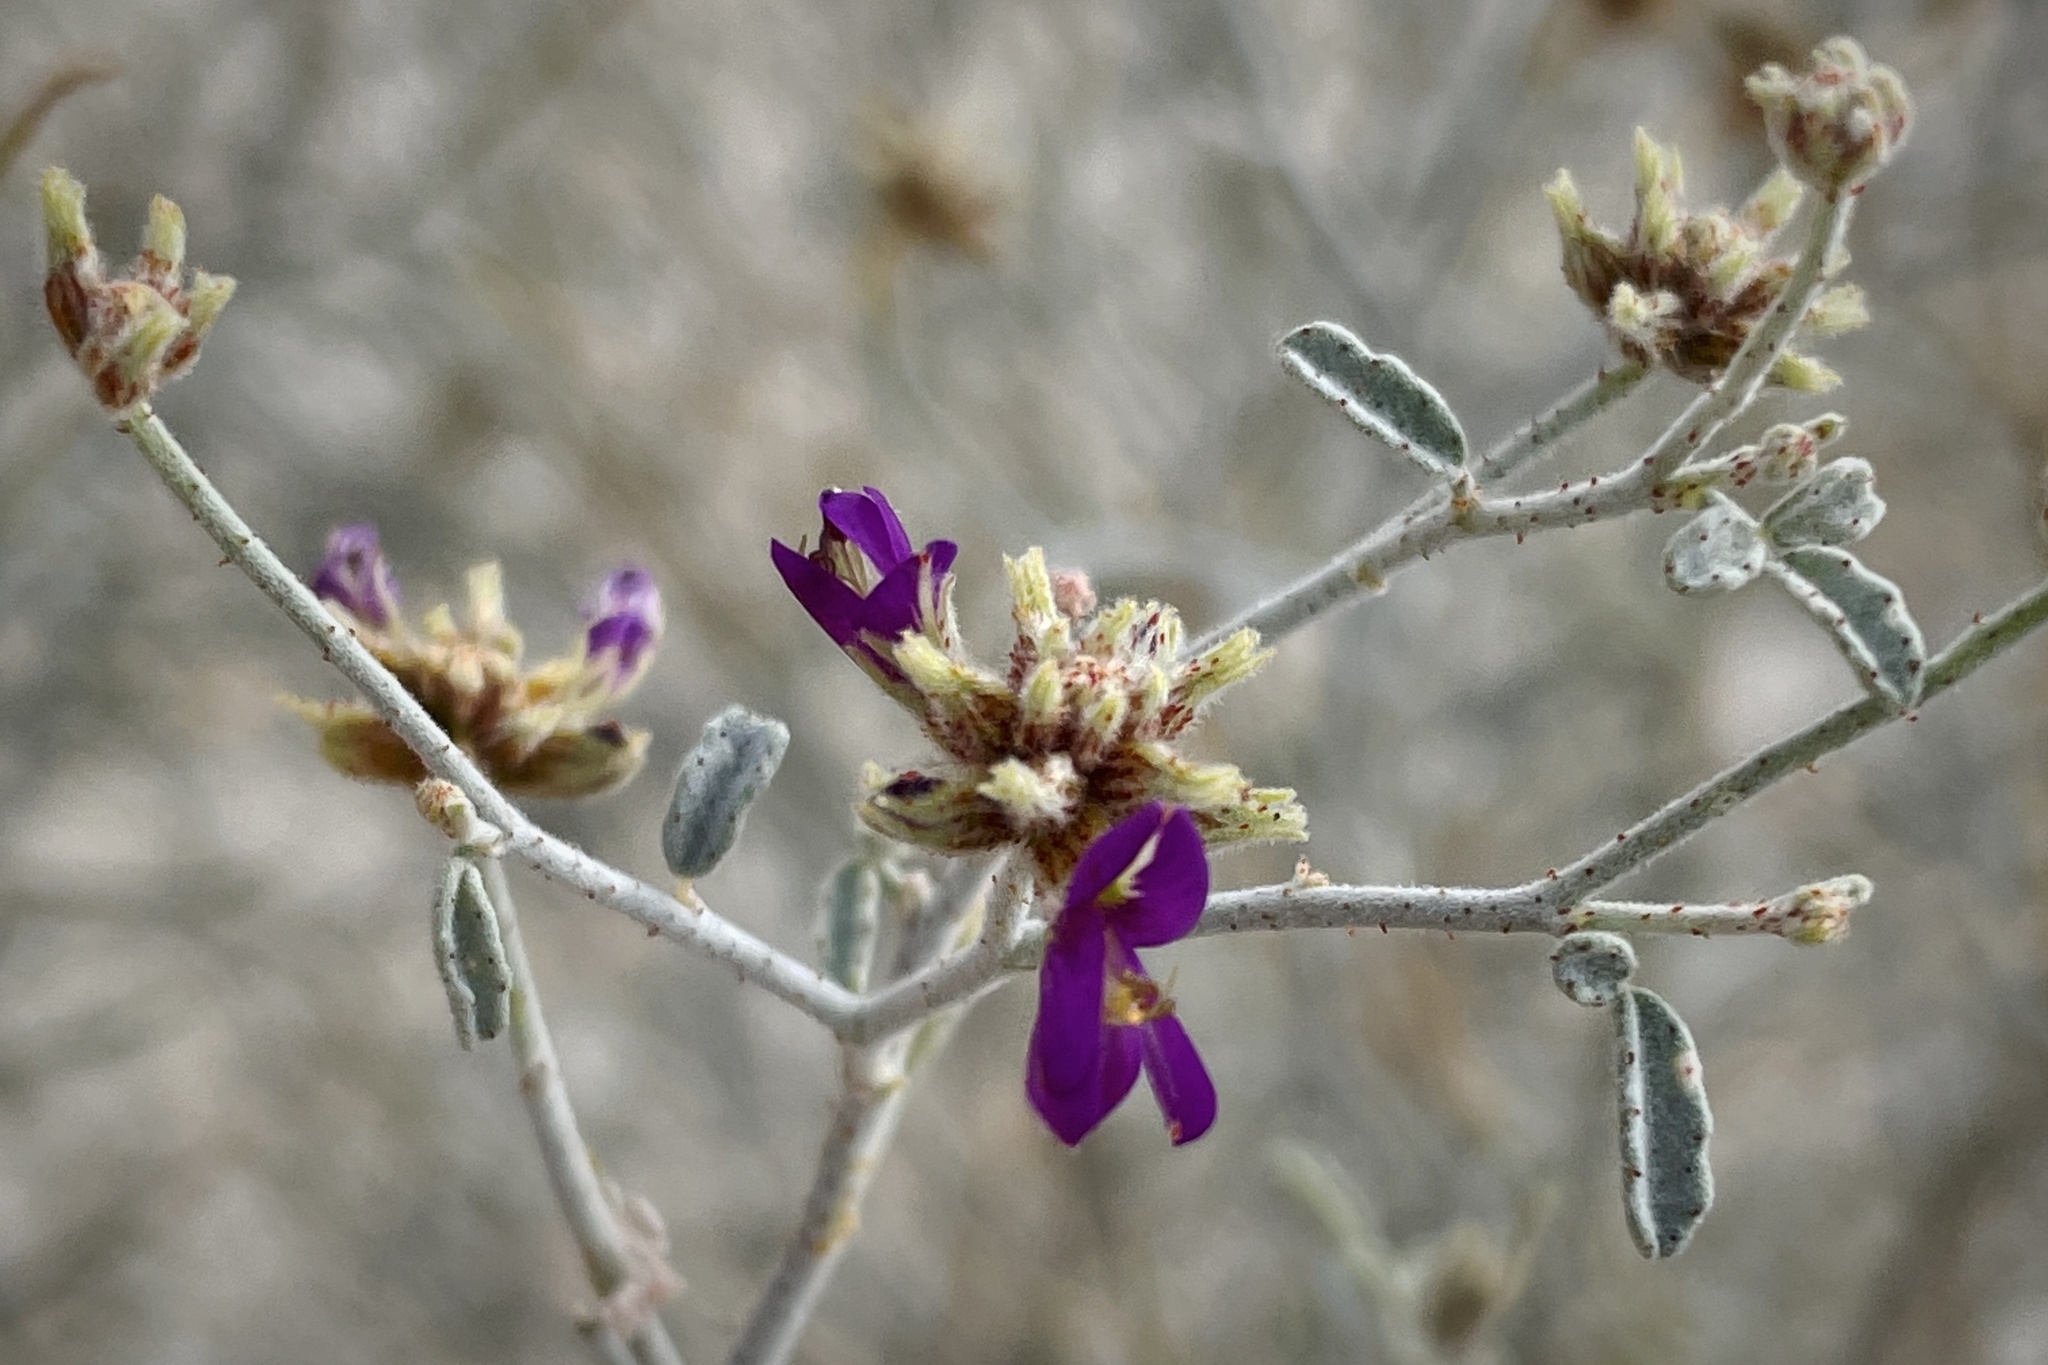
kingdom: Plantae
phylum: Tracheophyta
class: Magnoliopsida
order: Fabales
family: Fabaceae
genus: Psorothamnus
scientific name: Psorothamnus emoryi
